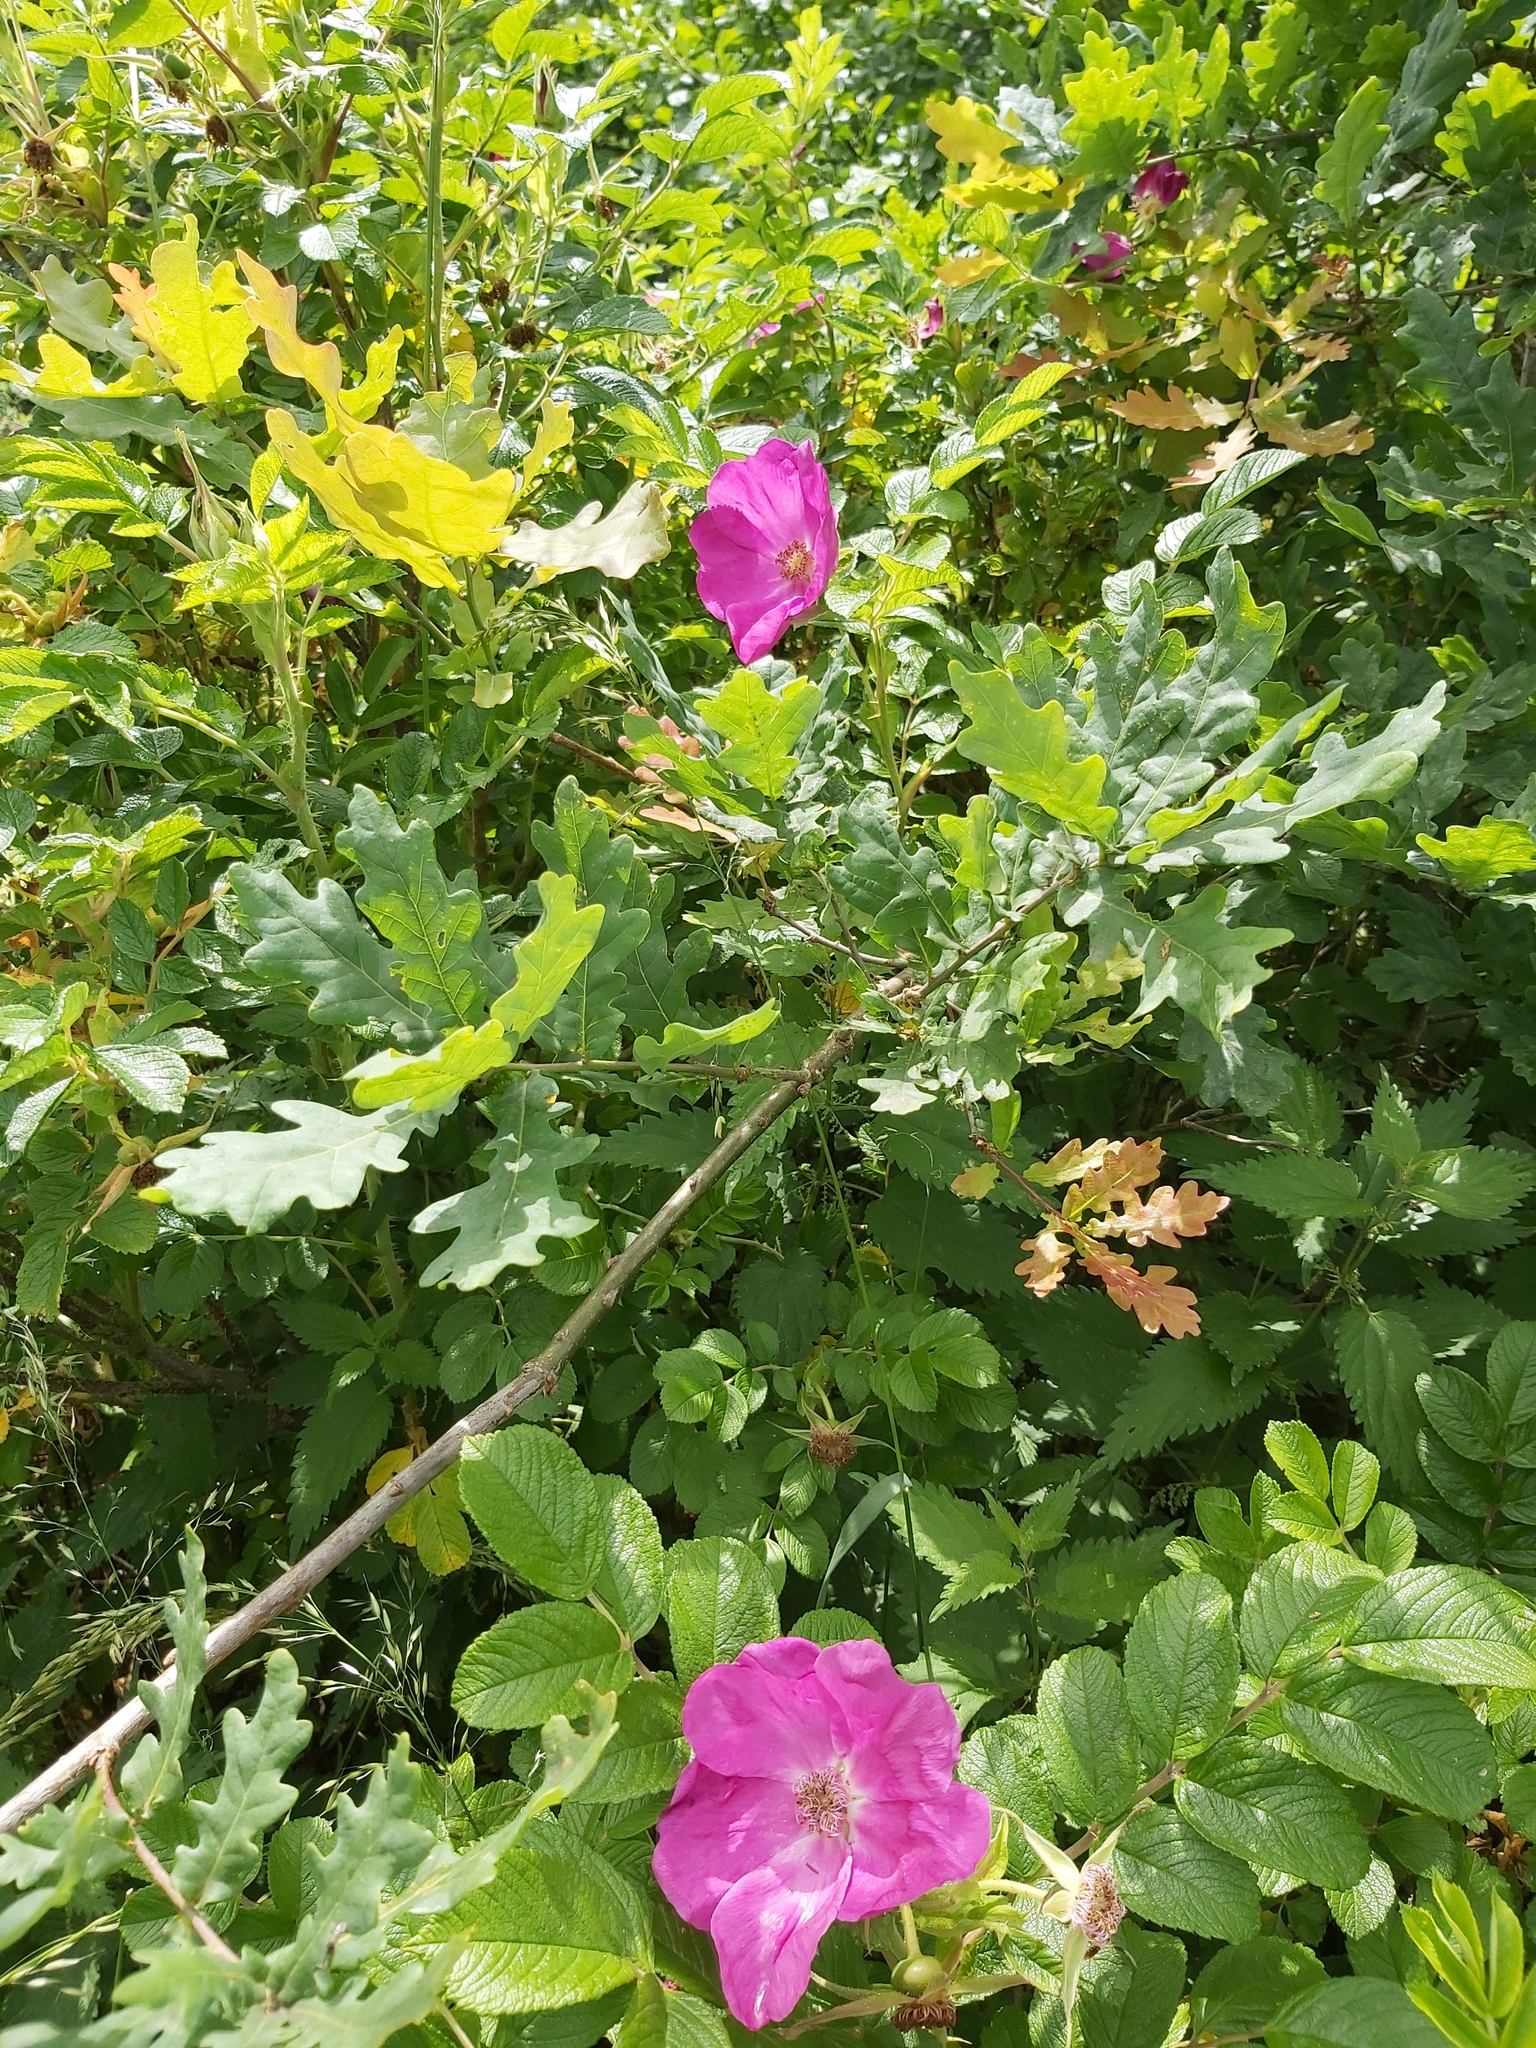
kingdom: Plantae
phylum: Tracheophyta
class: Magnoliopsida
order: Rosales
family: Rosaceae
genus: Rosa
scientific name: Rosa rugosa
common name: Japanese rose
